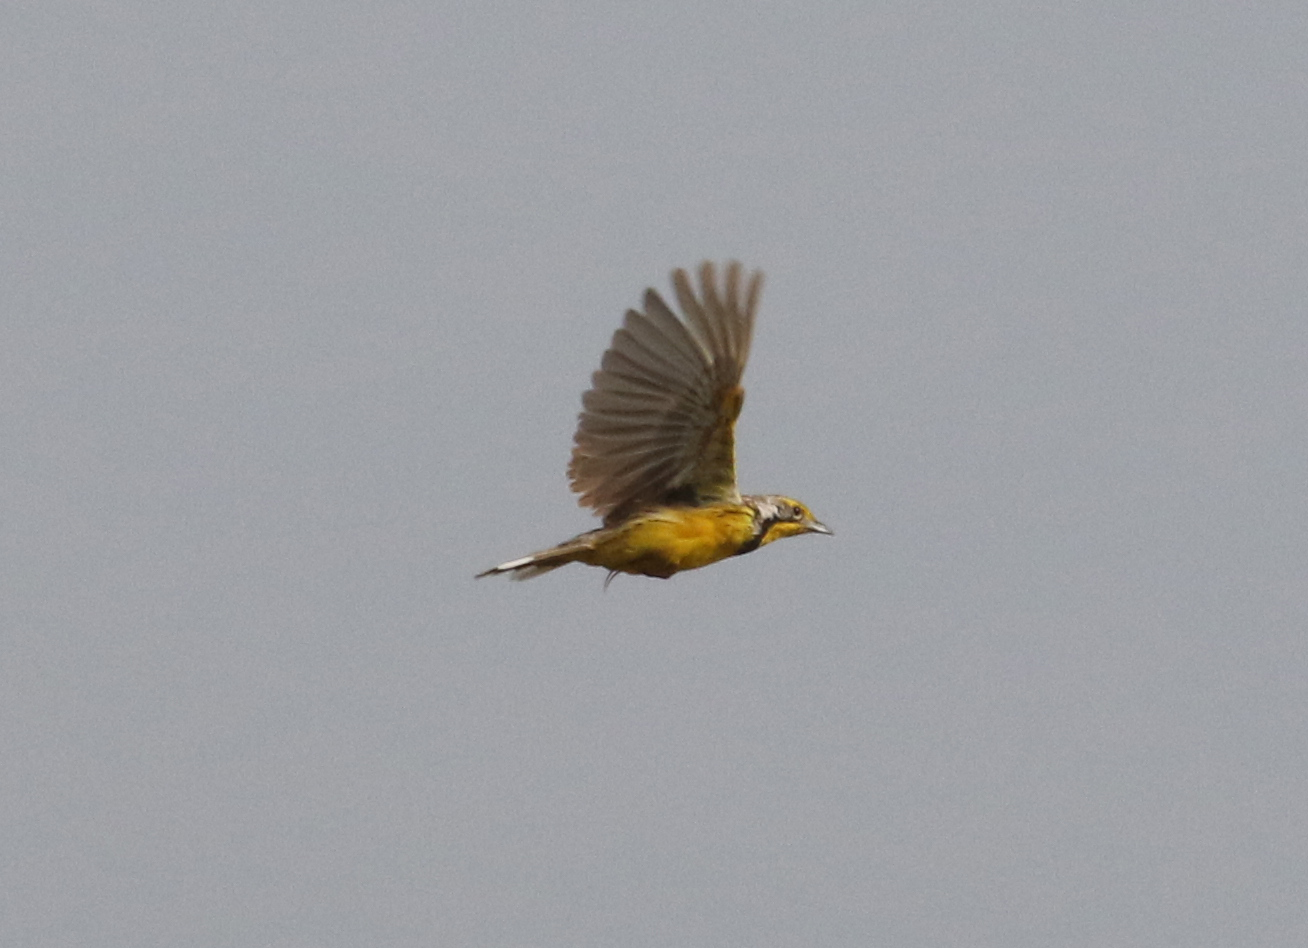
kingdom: Animalia
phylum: Chordata
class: Aves
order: Passeriformes
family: Motacillidae
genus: Macronyx
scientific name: Macronyx croceus
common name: Yellow-throated longclaw
